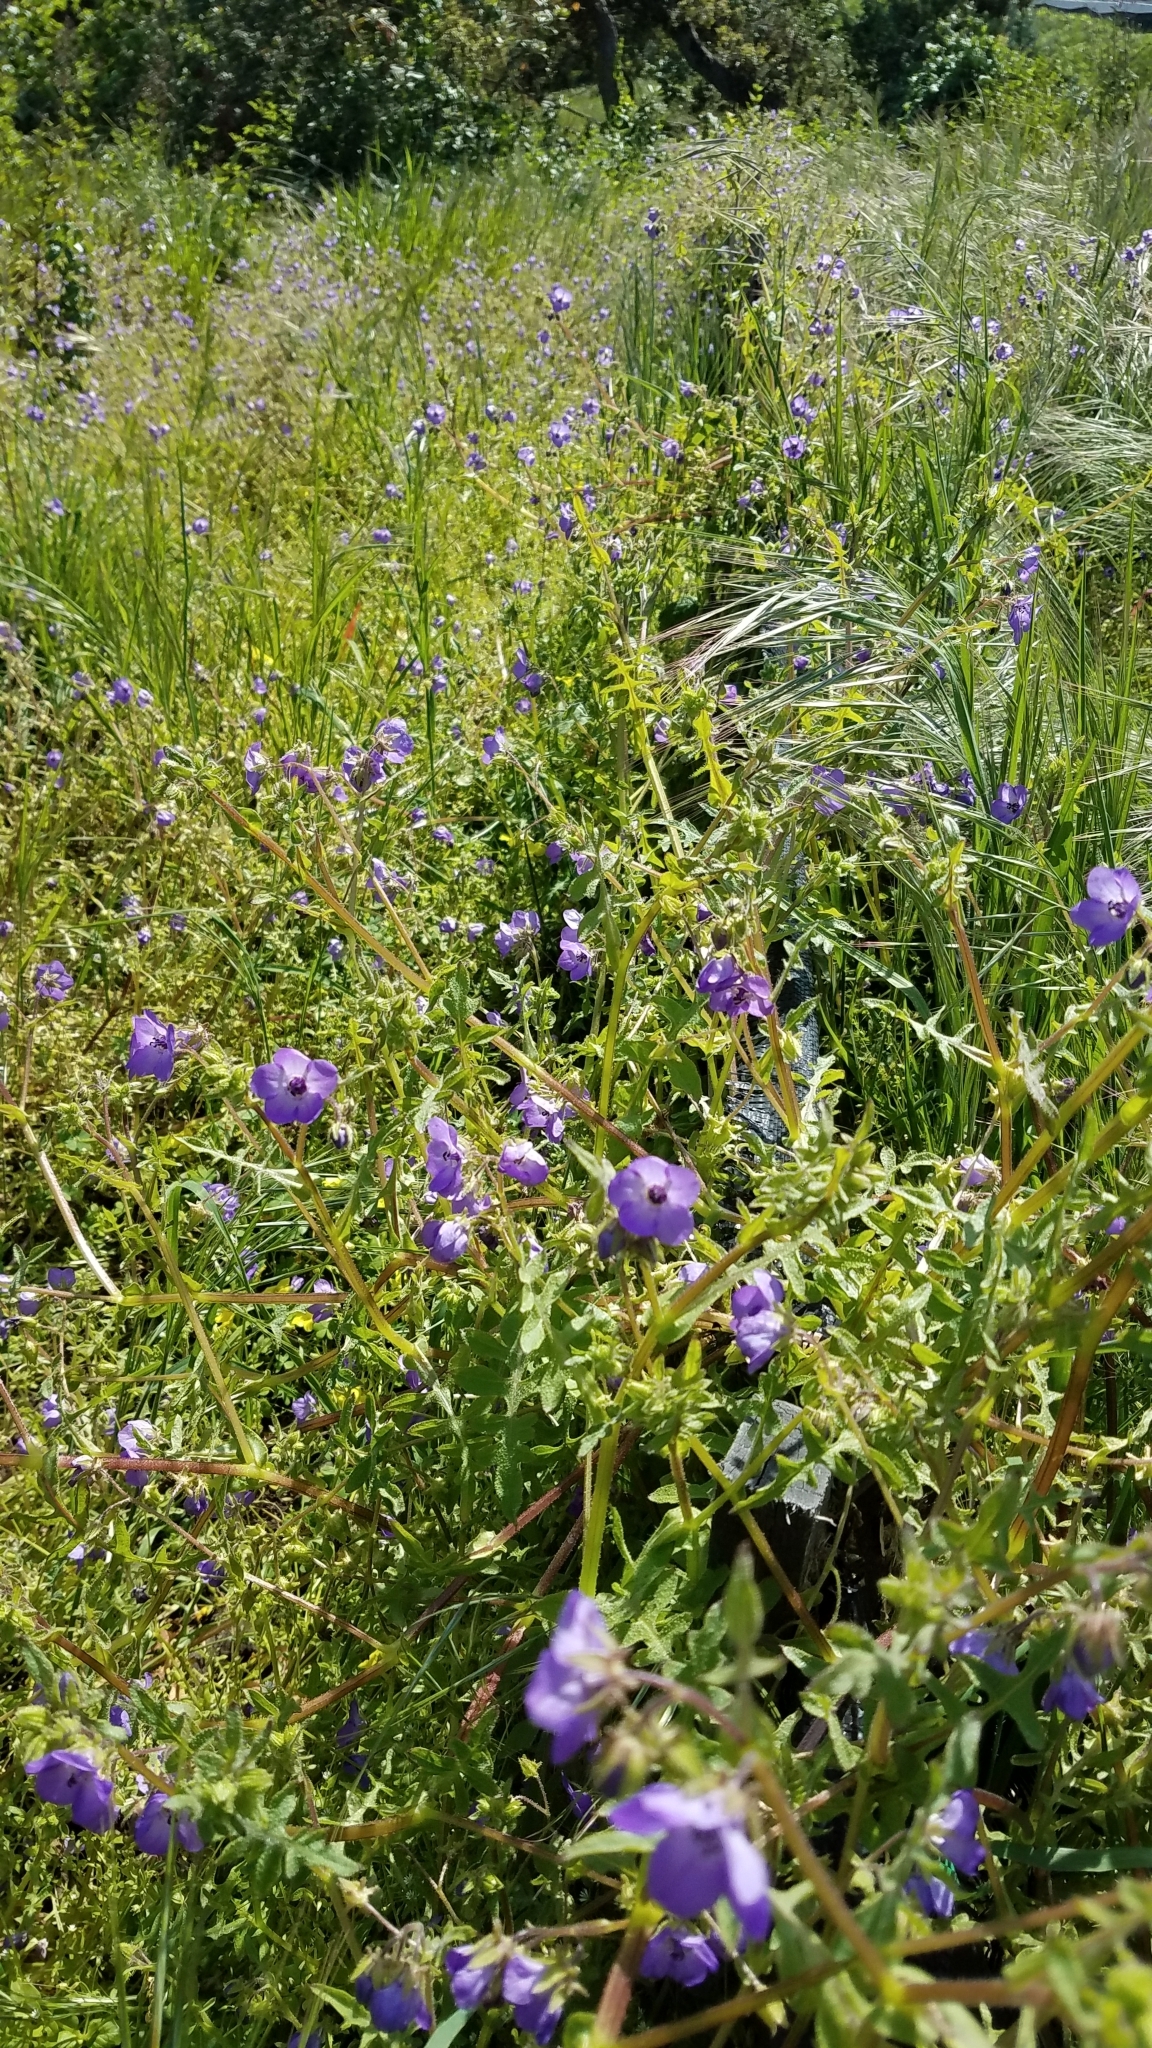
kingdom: Plantae
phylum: Tracheophyta
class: Magnoliopsida
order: Boraginales
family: Hydrophyllaceae
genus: Pholistoma
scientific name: Pholistoma auritum
